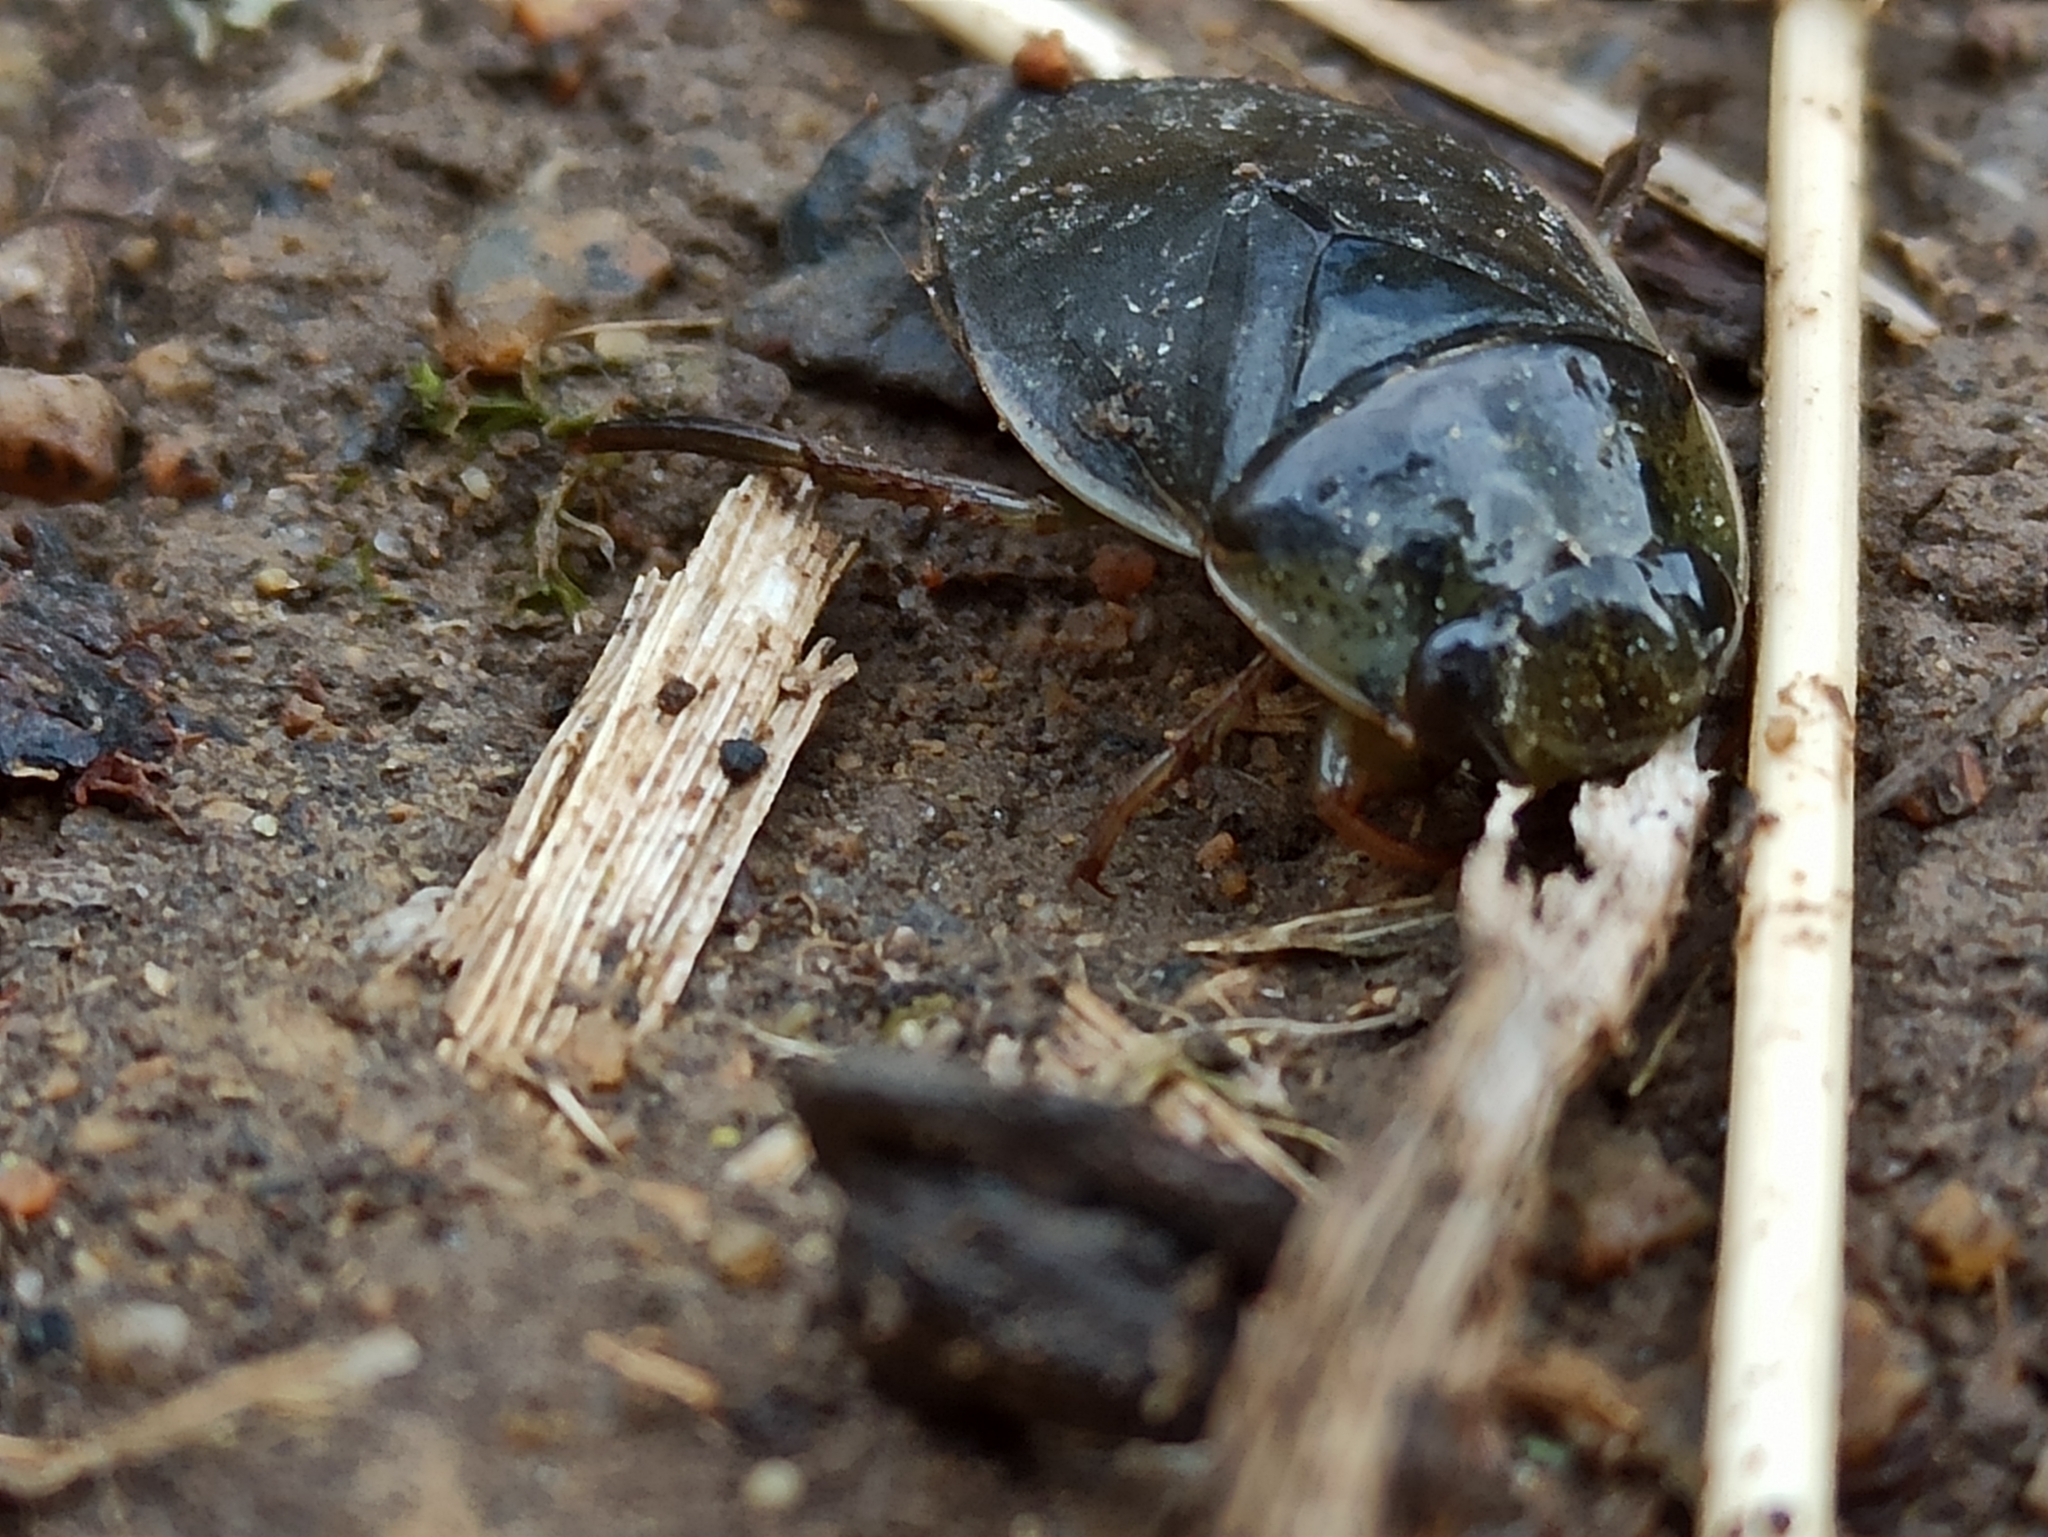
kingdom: Animalia
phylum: Arthropoda
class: Insecta
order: Hemiptera
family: Naucoridae
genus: Ilyocoris
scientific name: Ilyocoris cimicoides
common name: Saucer bugs
